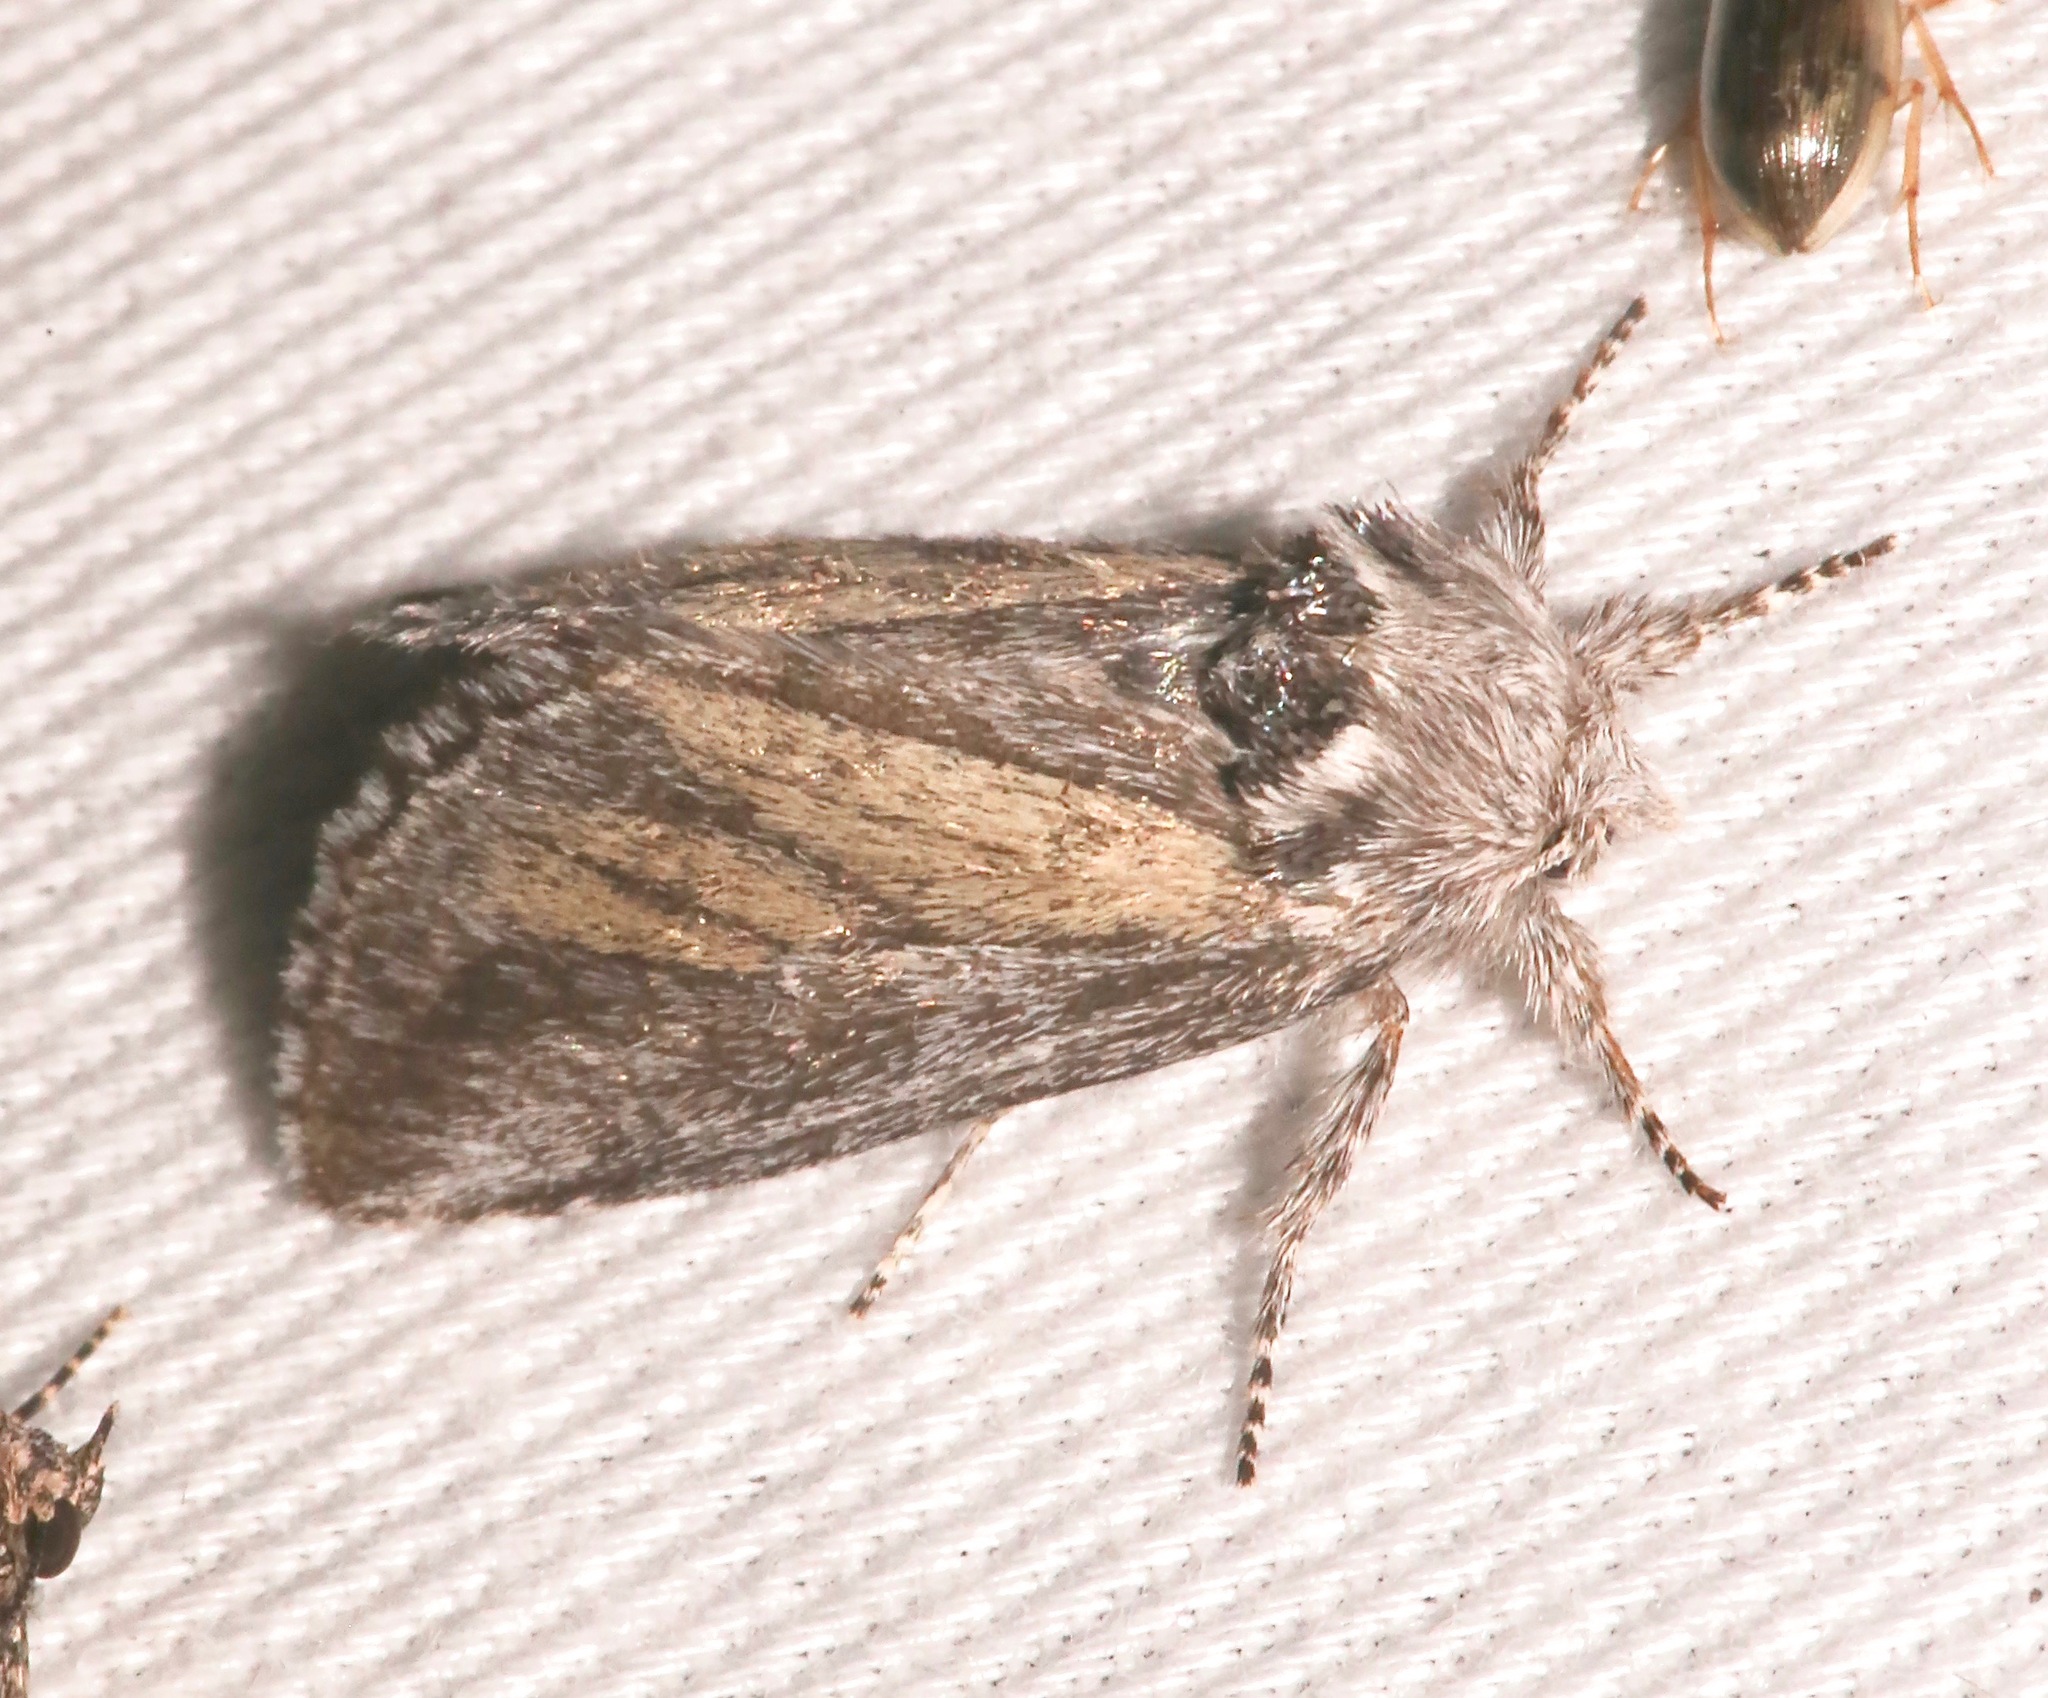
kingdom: Animalia
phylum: Arthropoda
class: Insecta
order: Lepidoptera
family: Notodontidae
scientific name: Notodontidae
